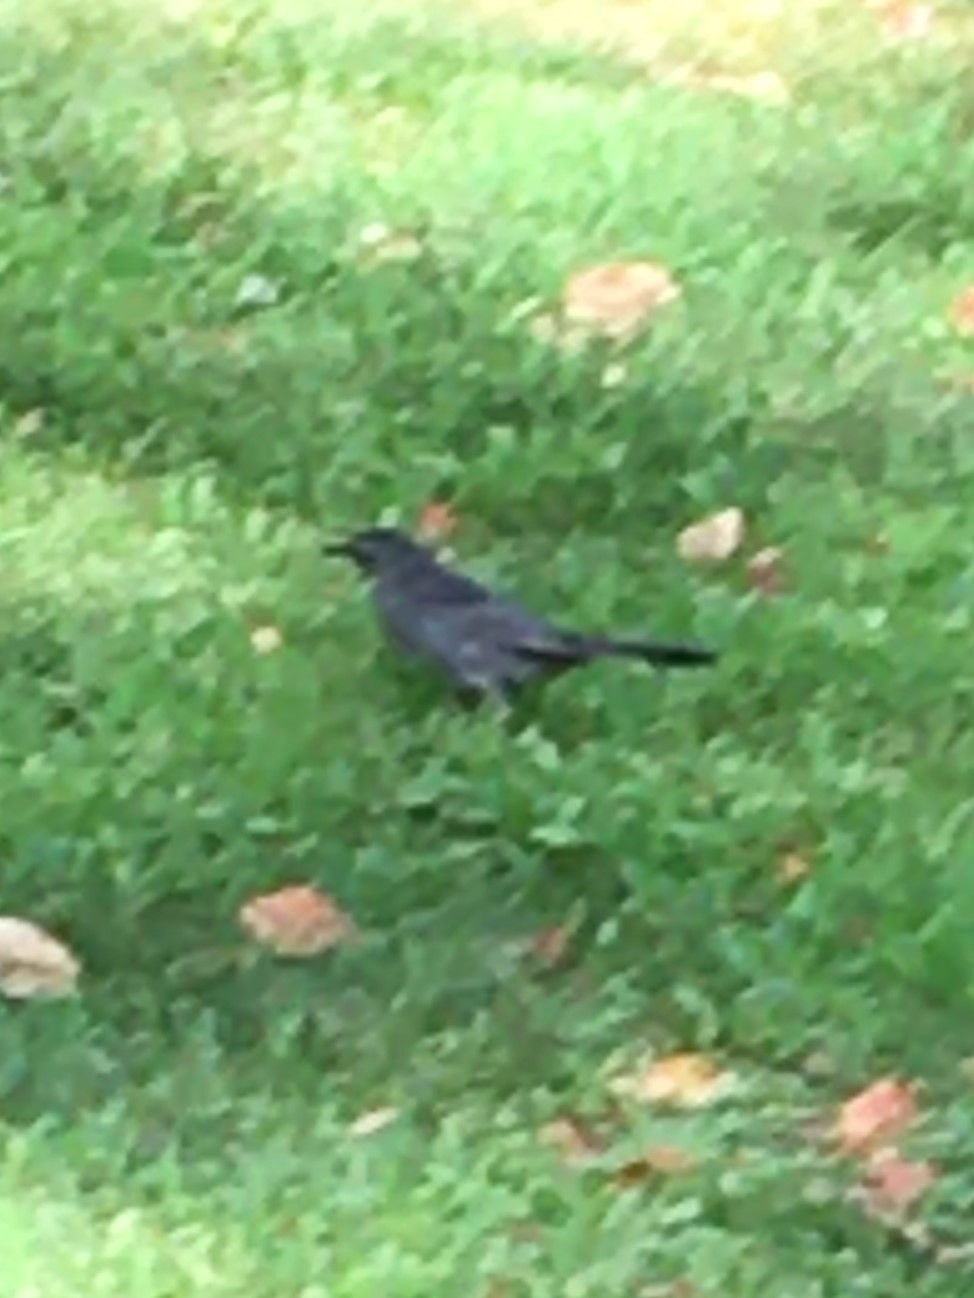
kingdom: Animalia
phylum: Chordata
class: Aves
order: Passeriformes
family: Mimidae
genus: Dumetella
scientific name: Dumetella carolinensis
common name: Gray catbird
